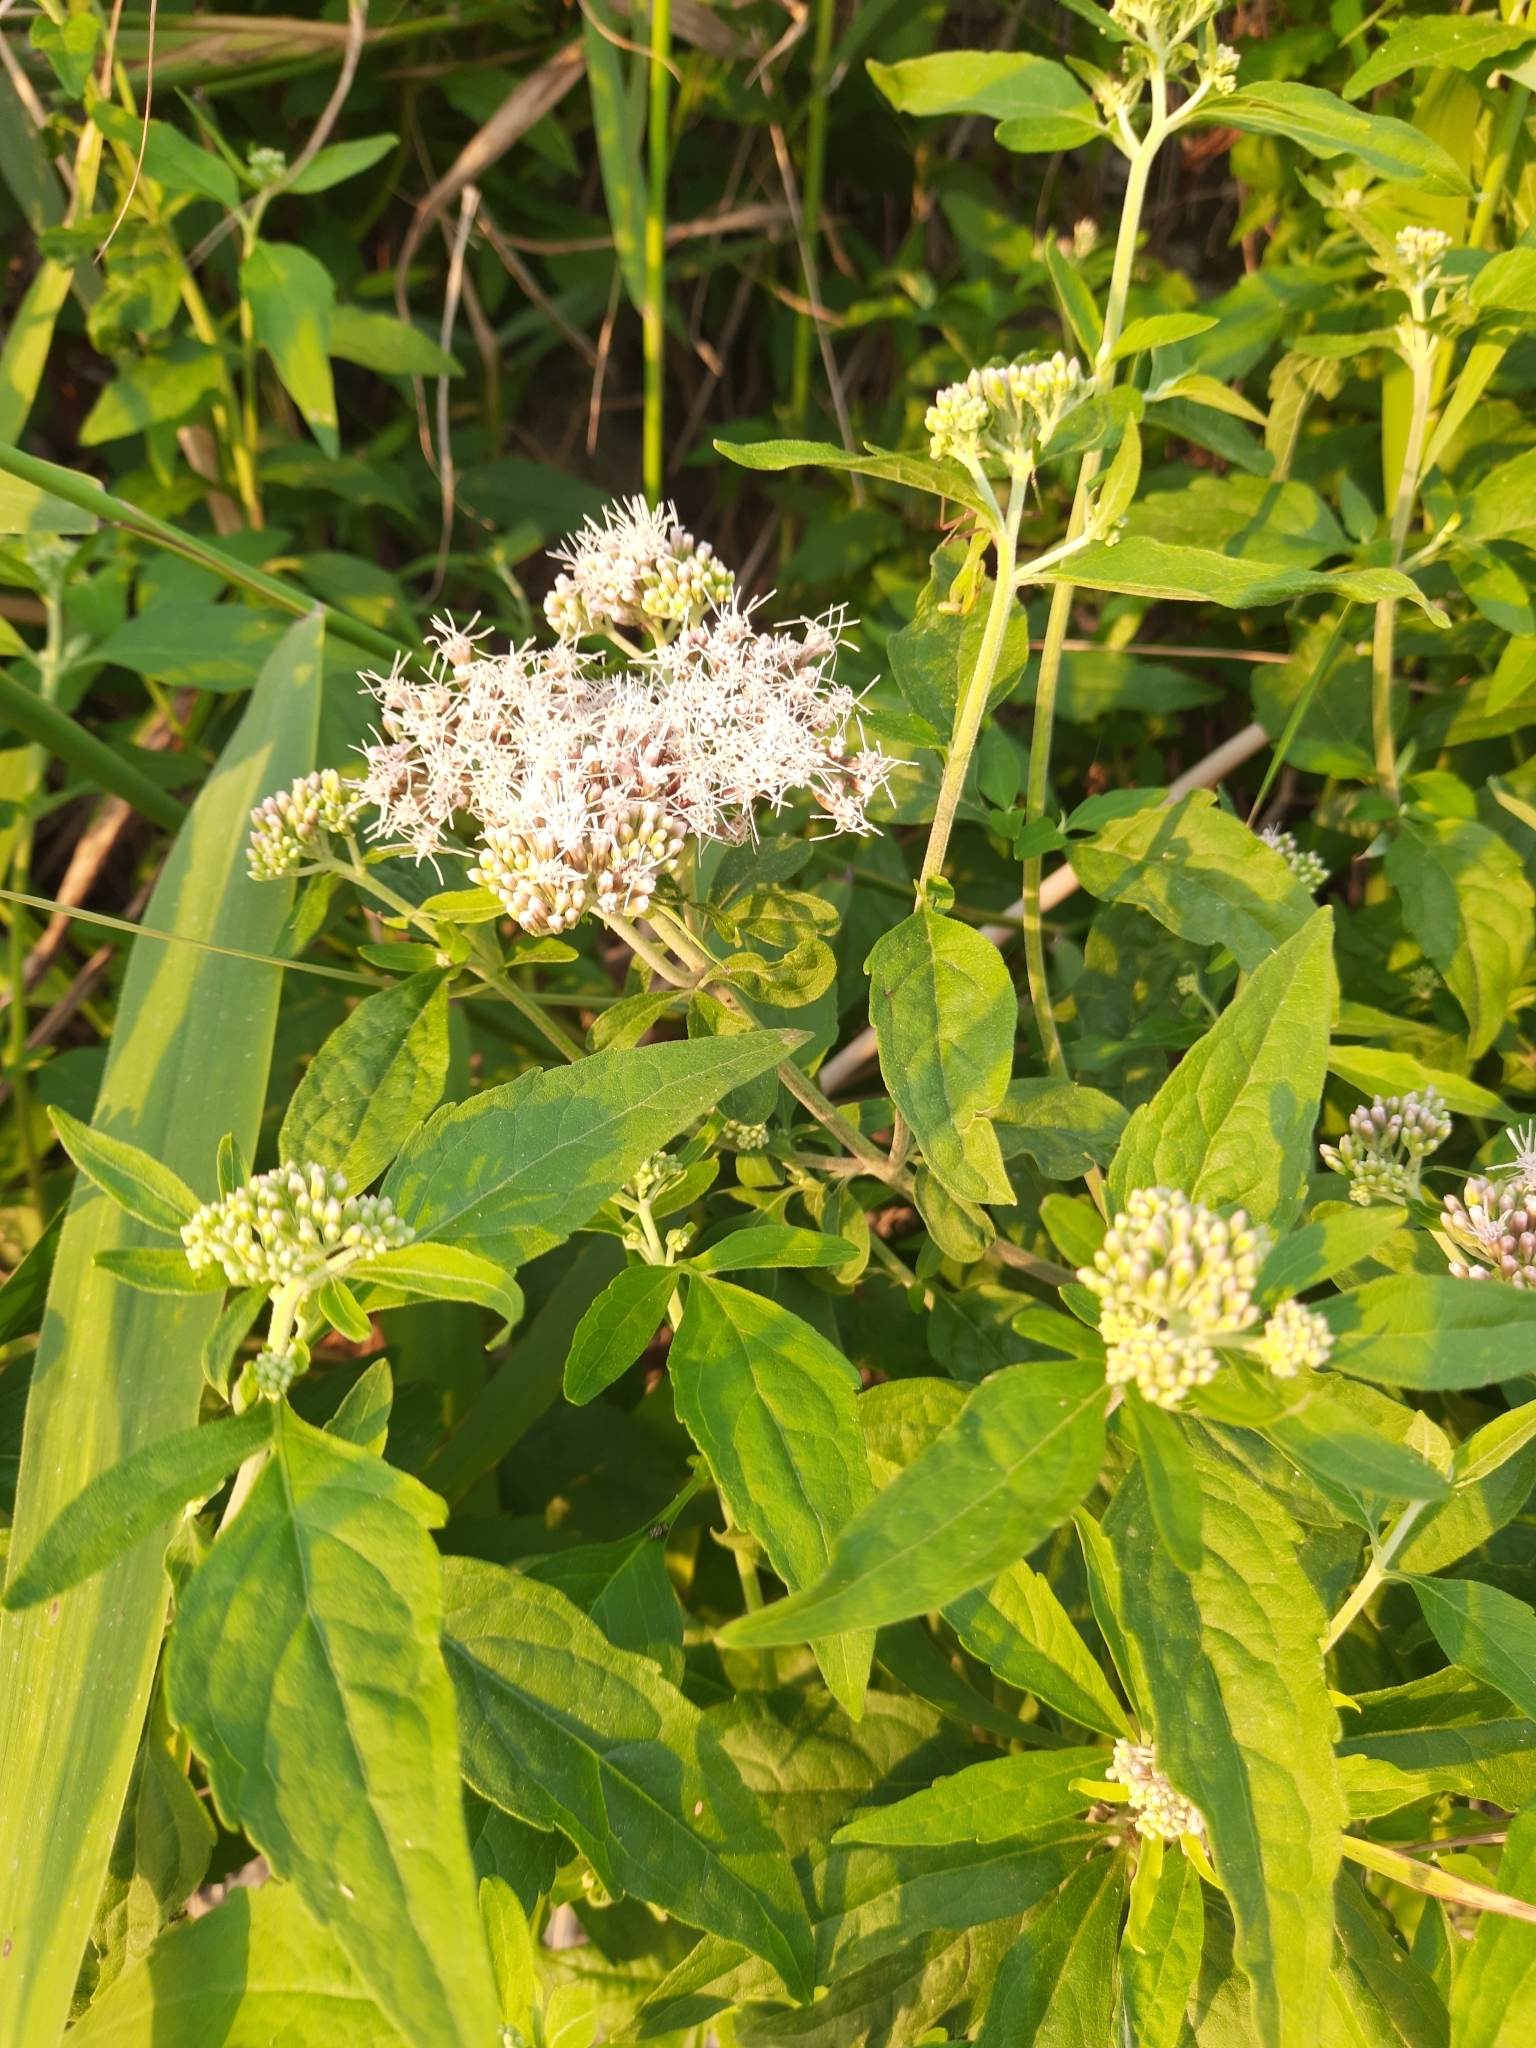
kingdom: Plantae
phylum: Tracheophyta
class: Magnoliopsida
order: Asterales
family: Asteraceae
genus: Eupatorium
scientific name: Eupatorium cannabinum
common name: Hemp-agrimony
